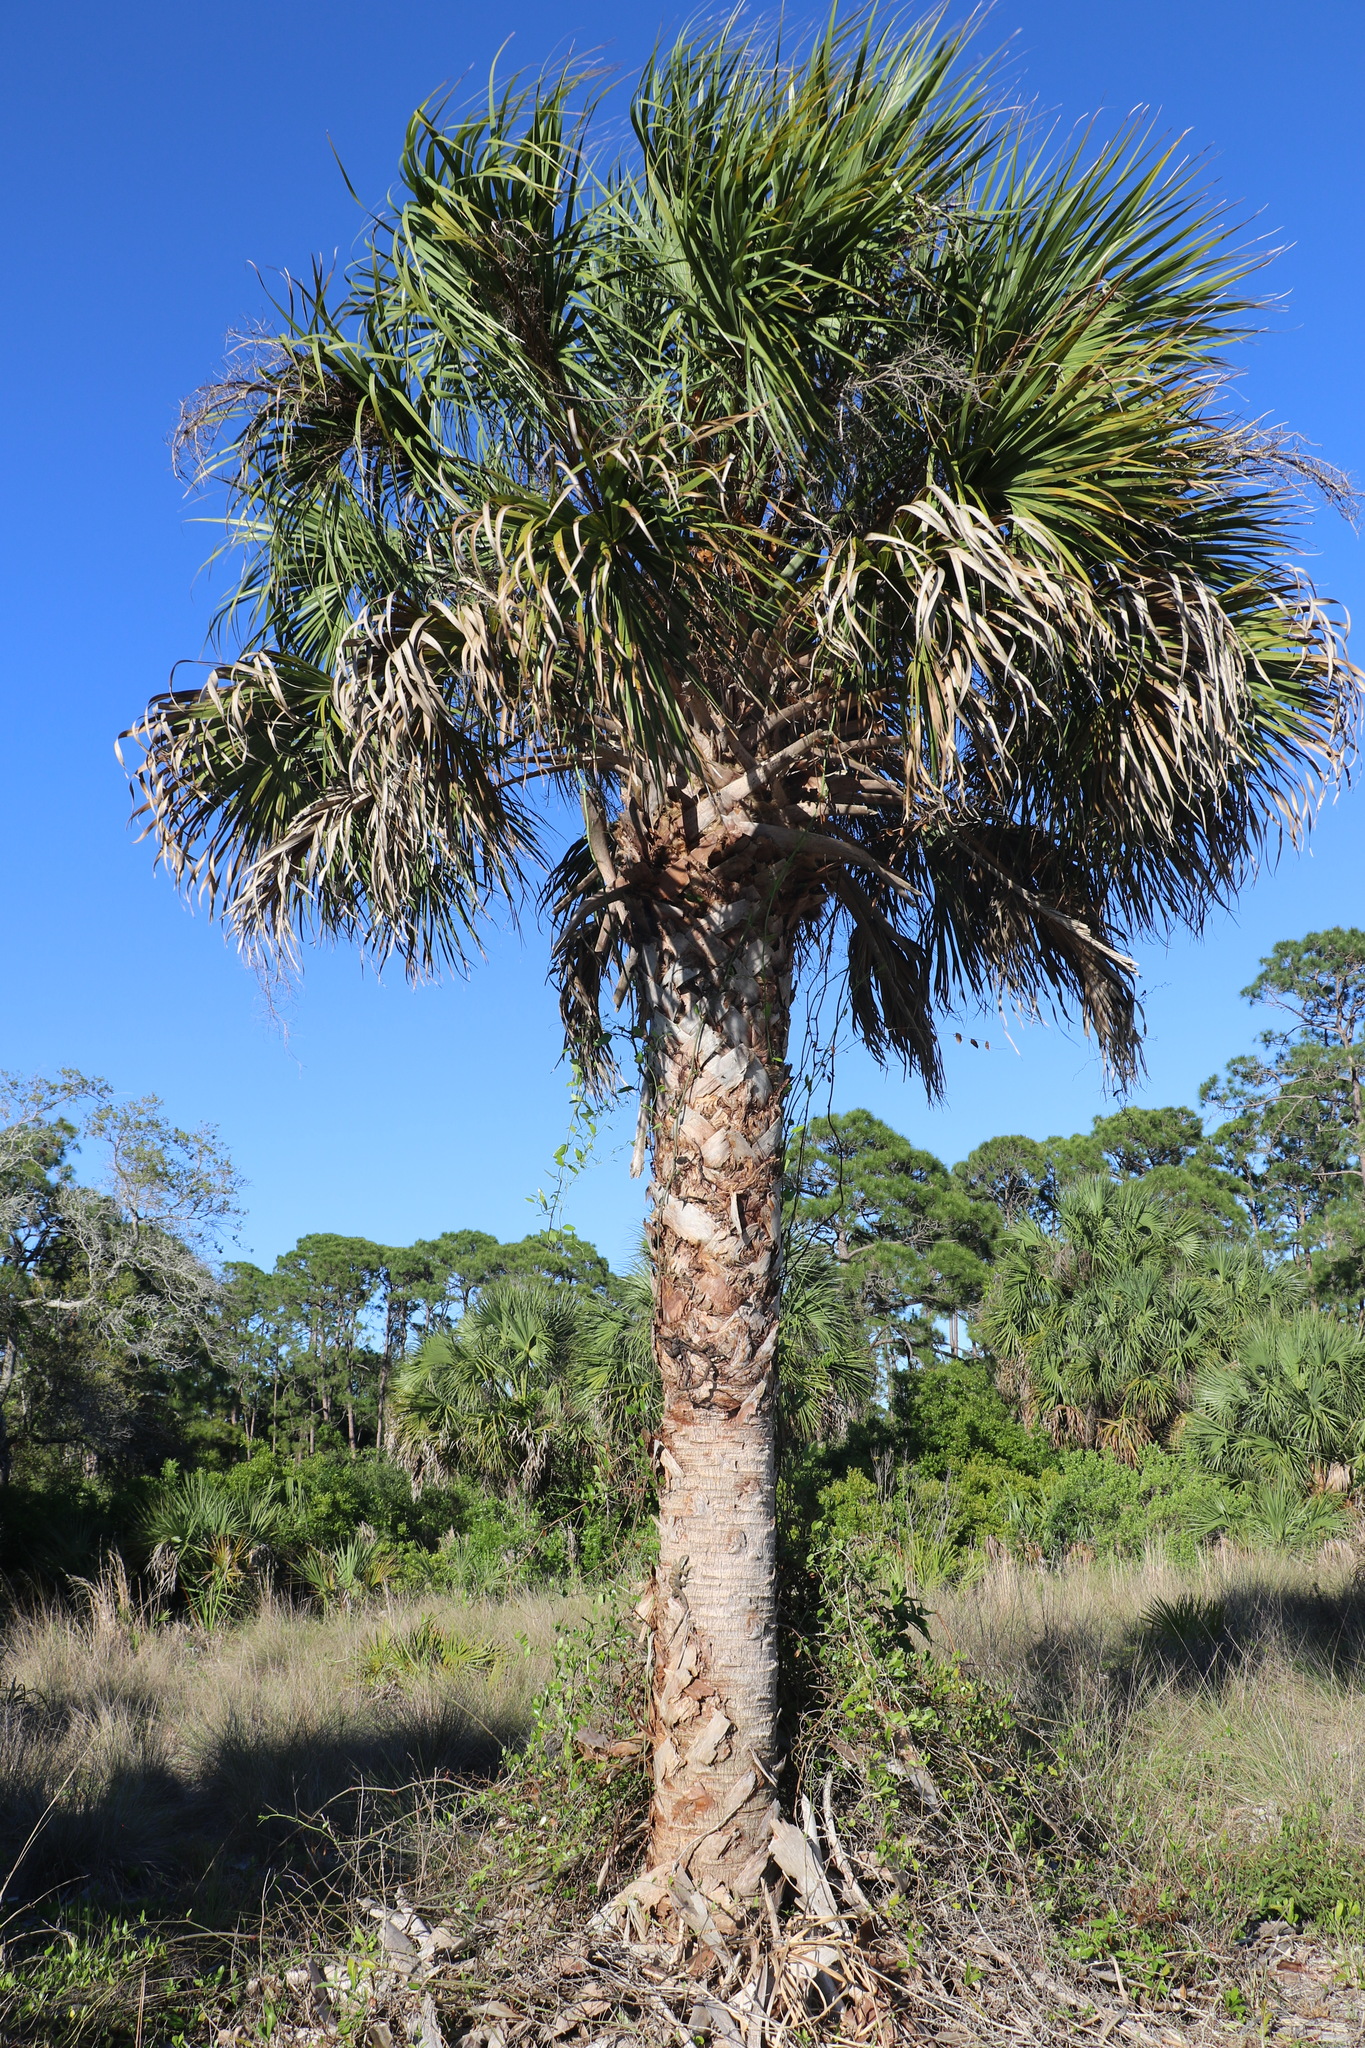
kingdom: Plantae
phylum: Tracheophyta
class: Liliopsida
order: Arecales
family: Arecaceae
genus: Sabal
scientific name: Sabal palmetto
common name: Blue palmetto
